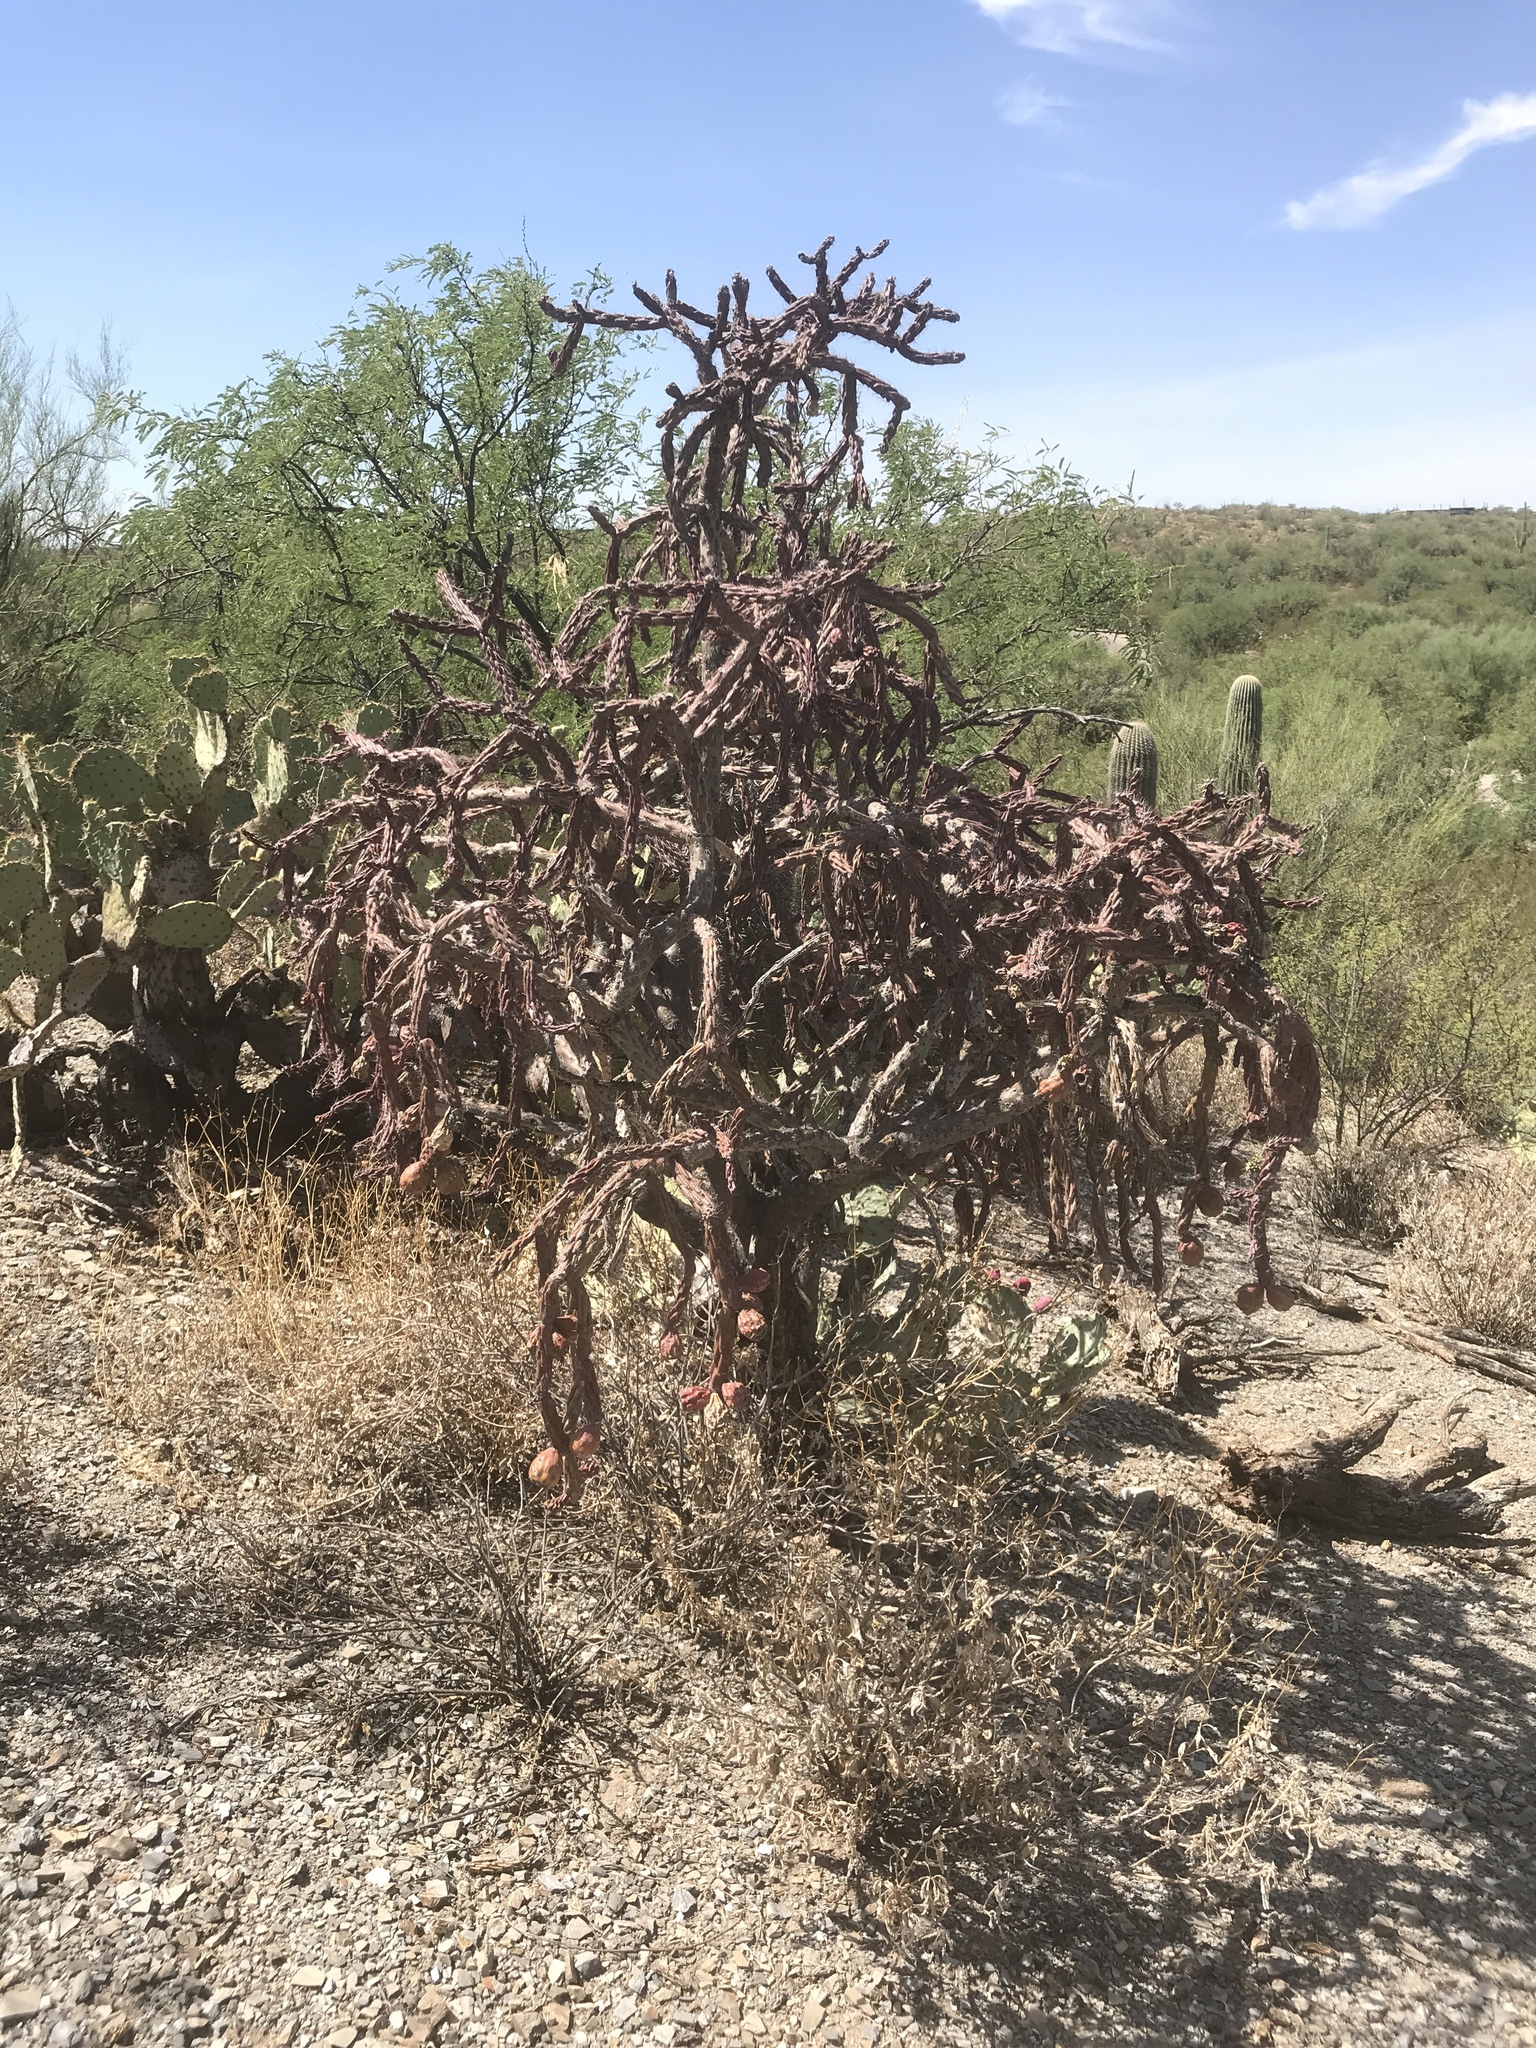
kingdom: Plantae
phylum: Tracheophyta
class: Magnoliopsida
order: Caryophyllales
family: Cactaceae
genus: Cylindropuntia
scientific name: Cylindropuntia thurberi
